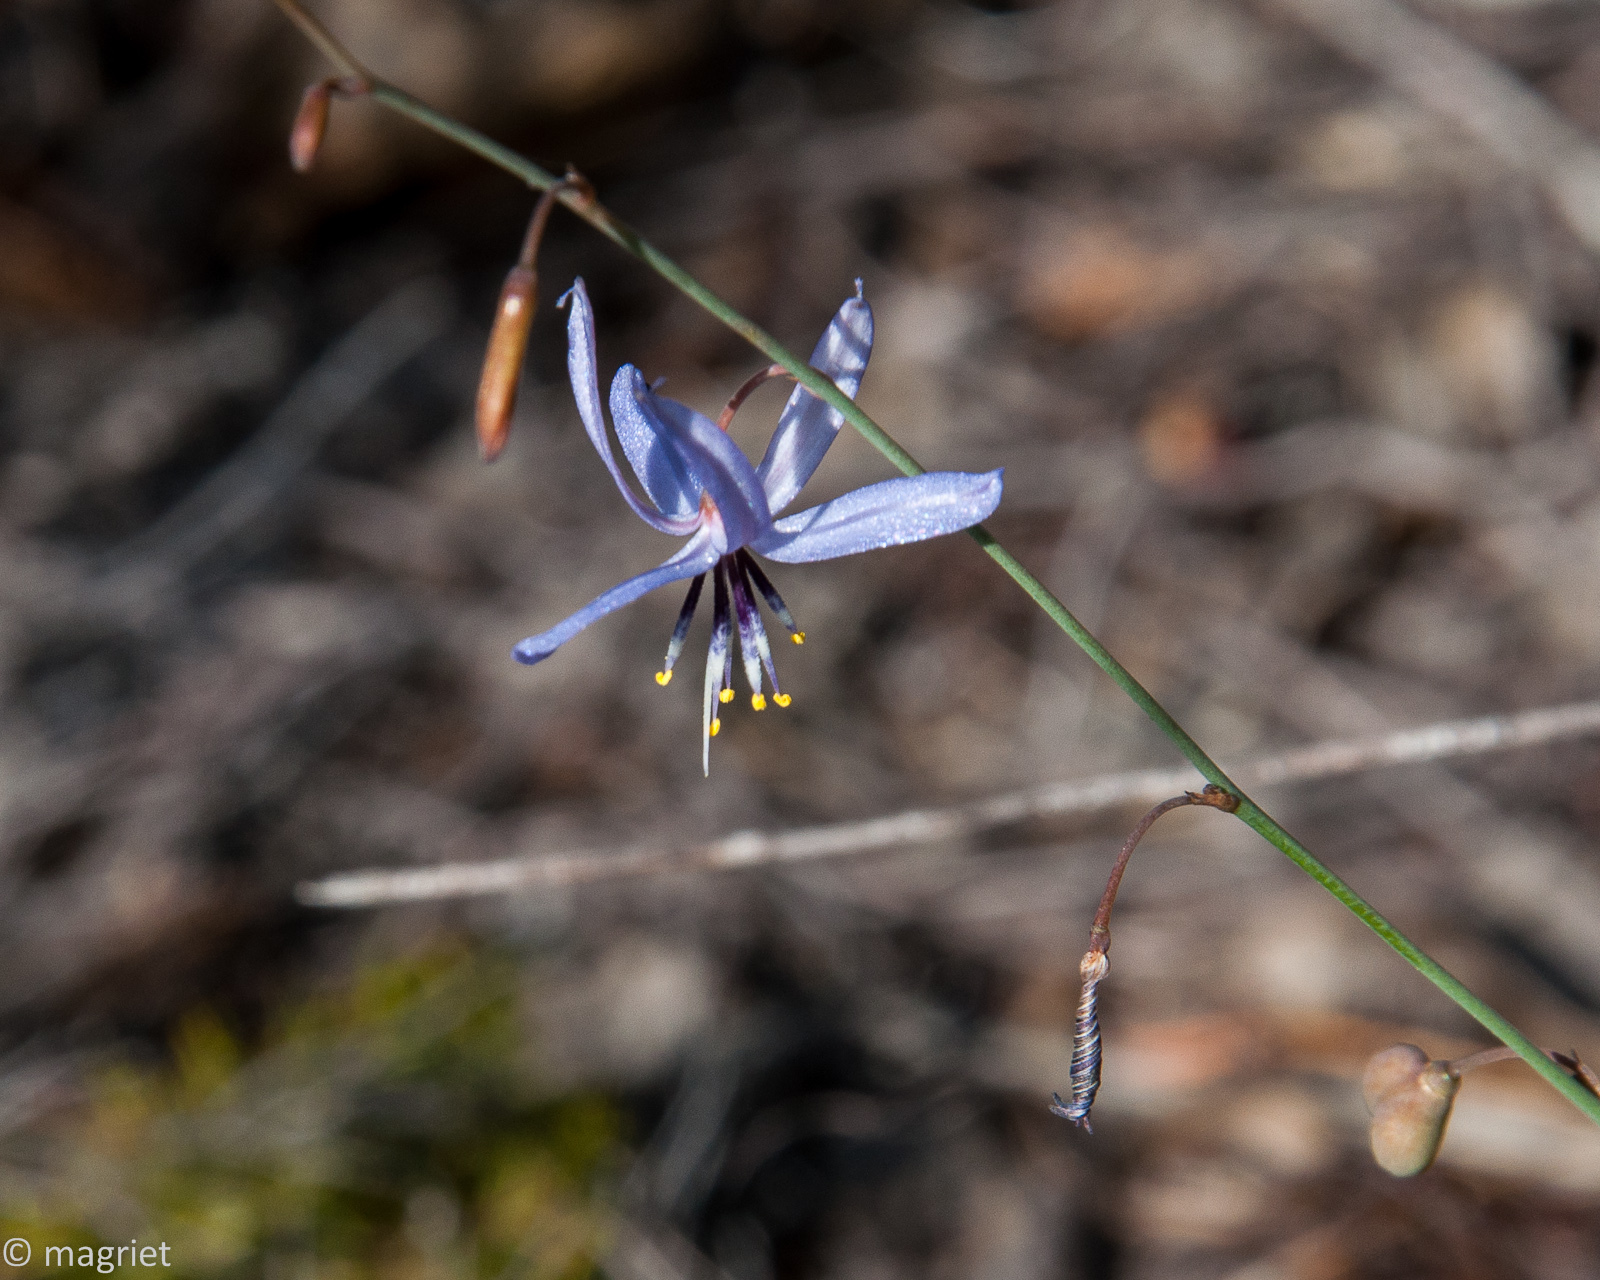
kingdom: Plantae
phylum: Tracheophyta
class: Liliopsida
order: Asparagales
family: Asphodelaceae
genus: Caesia
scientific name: Caesia contorta
